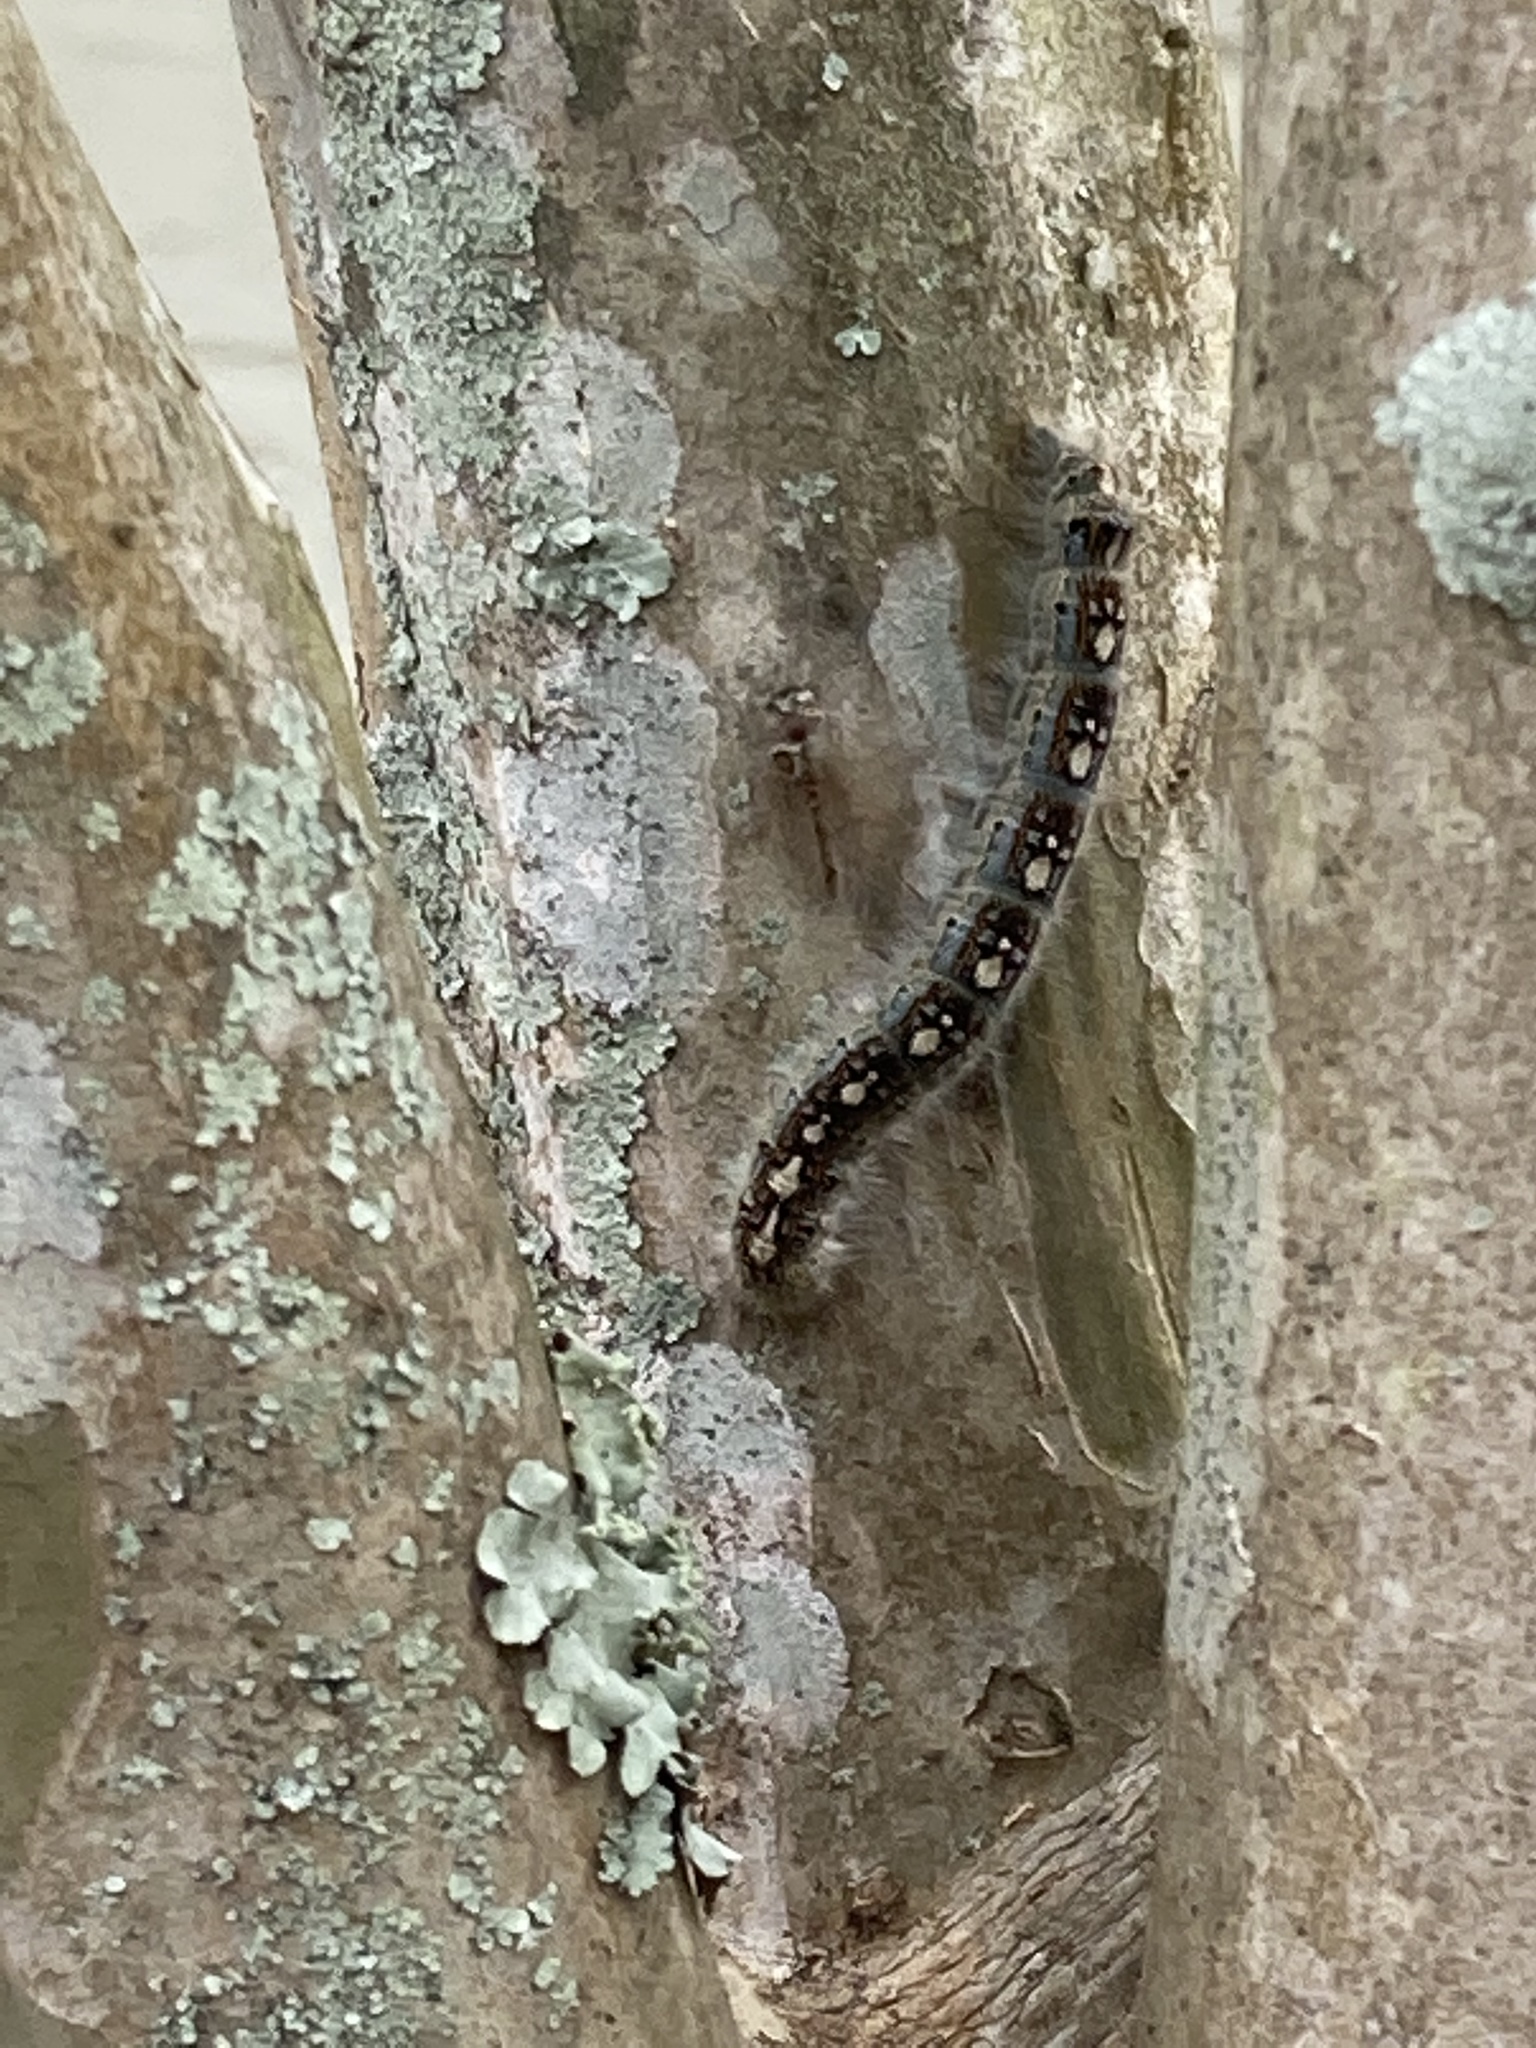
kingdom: Animalia
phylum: Arthropoda
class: Insecta
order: Lepidoptera
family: Lasiocampidae
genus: Malacosoma
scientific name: Malacosoma disstria
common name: Forest tent caterpillar
